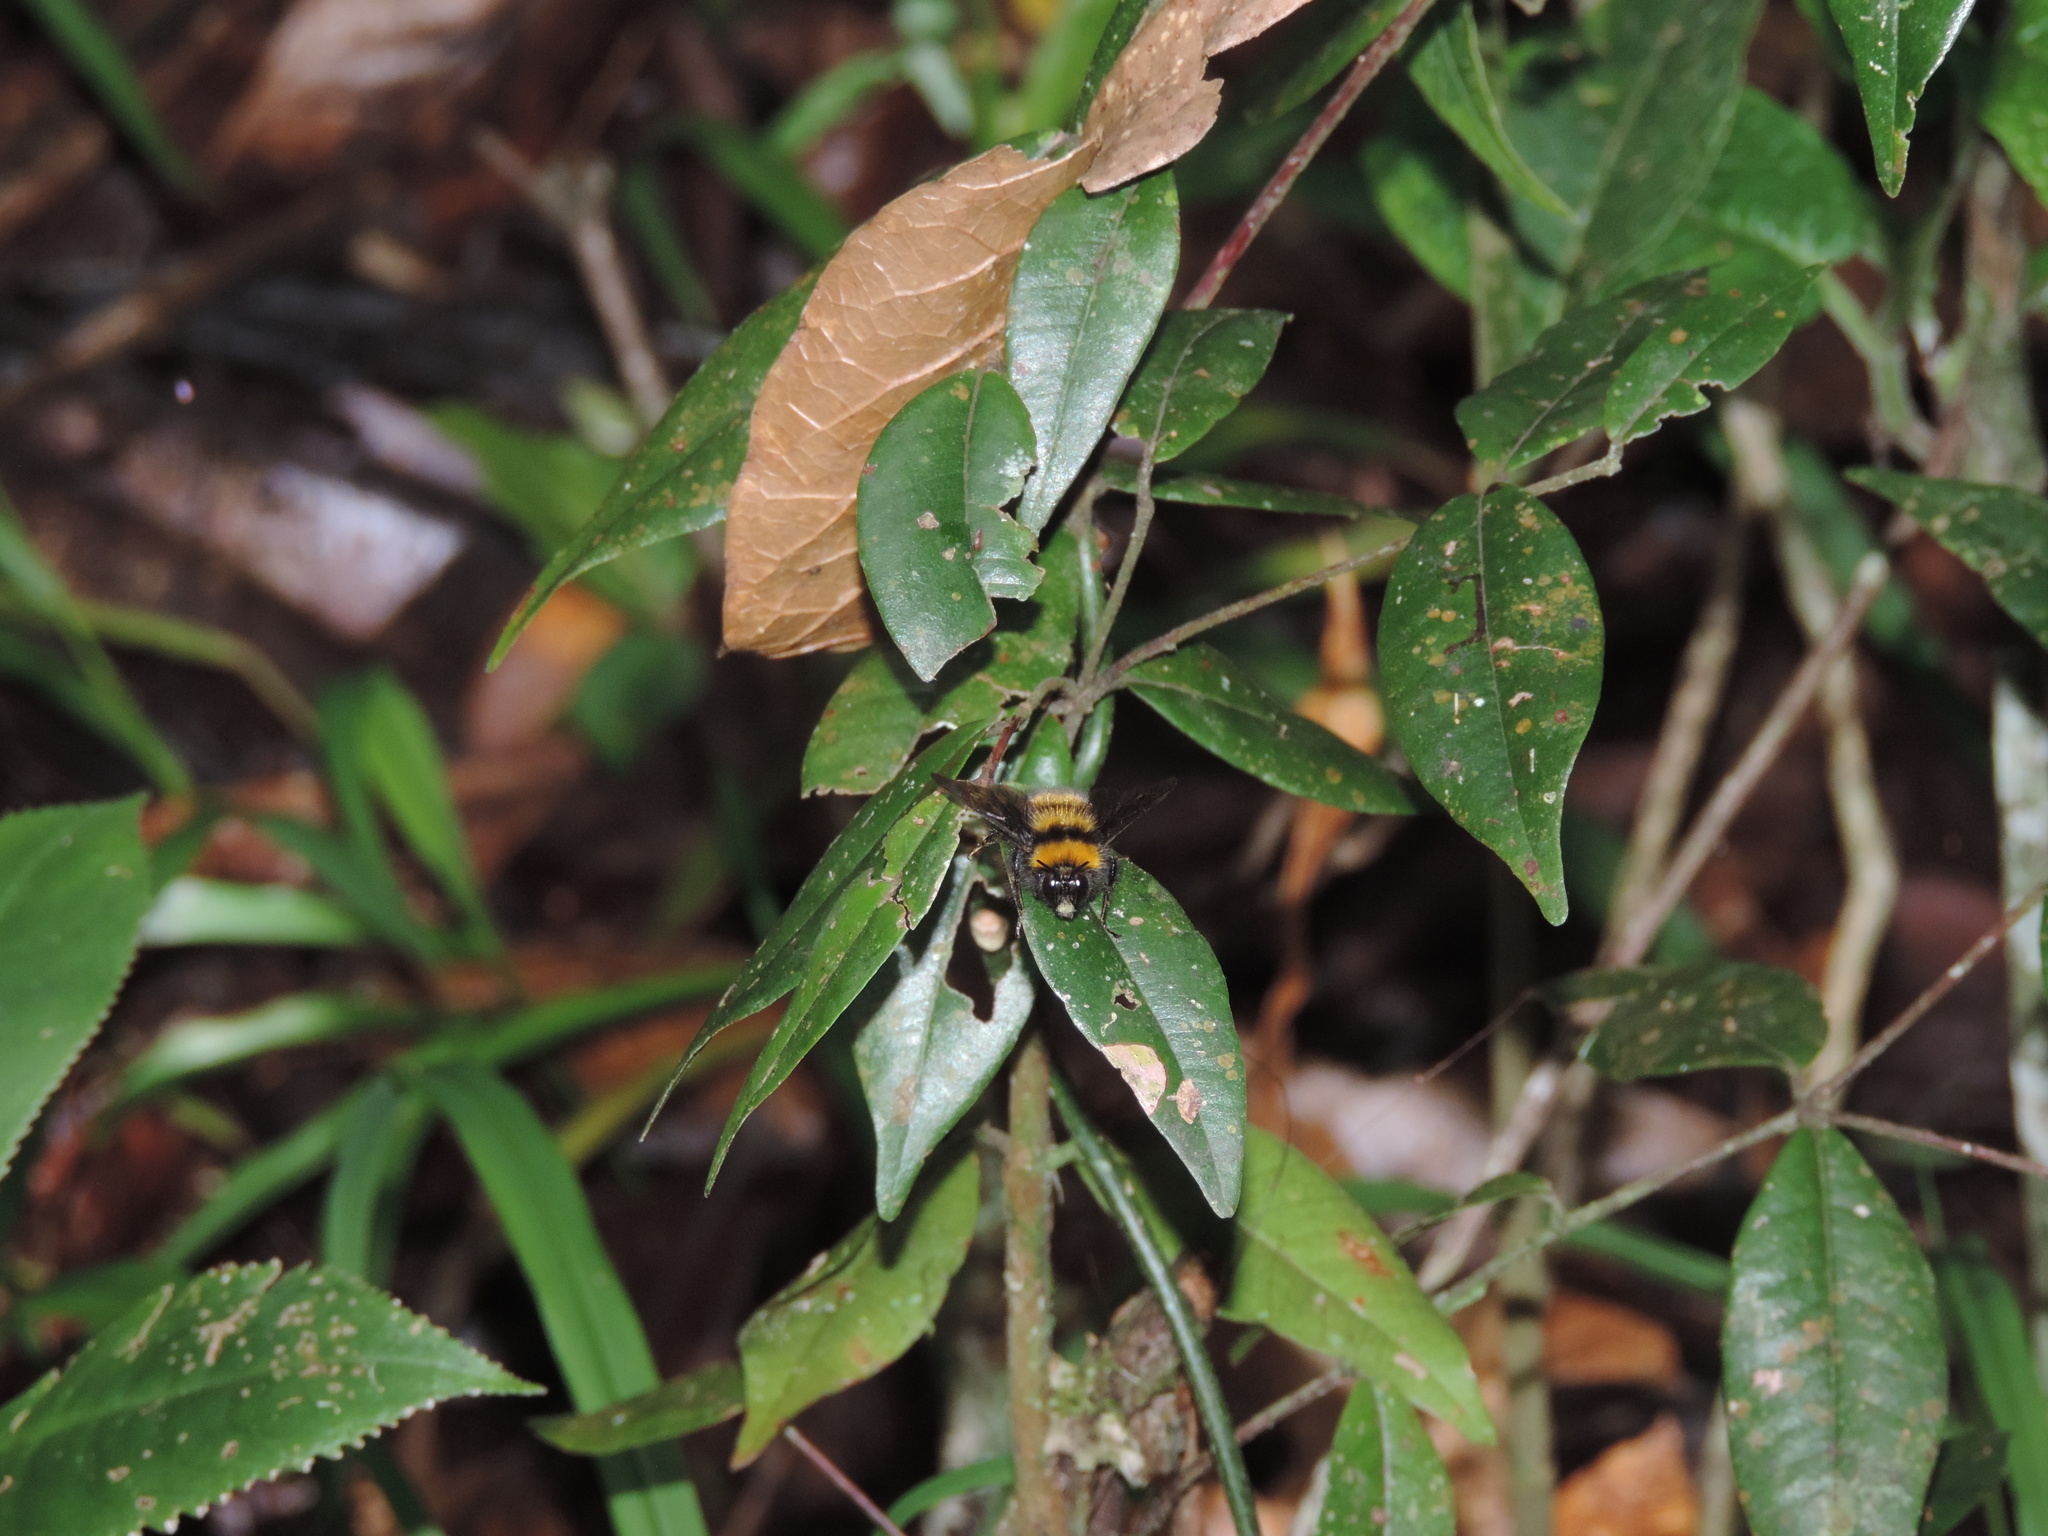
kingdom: Animalia
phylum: Arthropoda
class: Insecta
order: Hymenoptera
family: Apidae
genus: Bombus
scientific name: Bombus hortulanus
